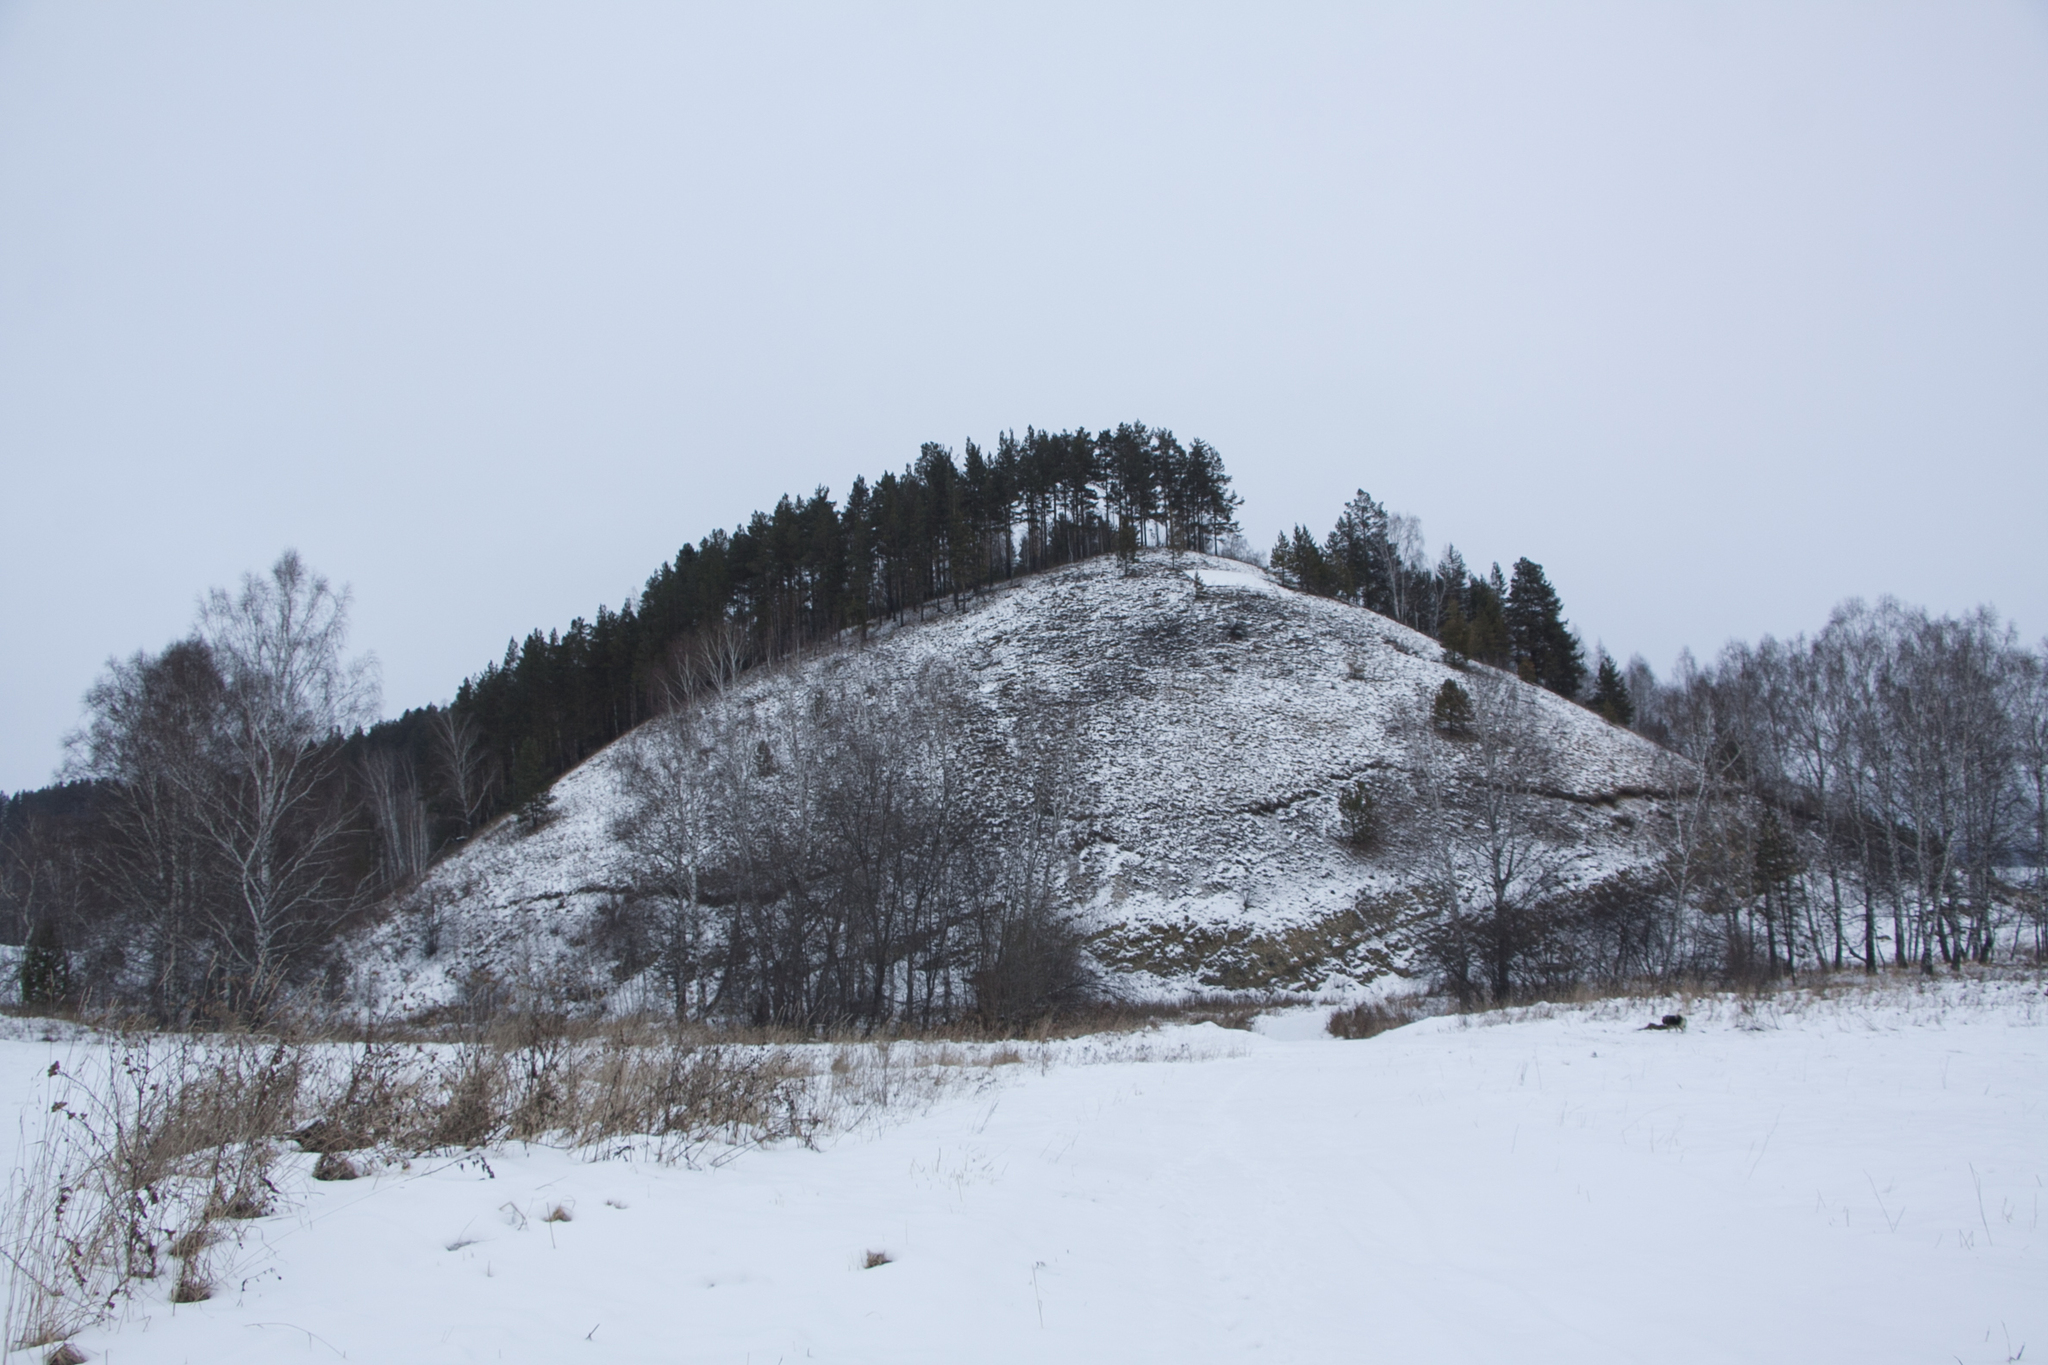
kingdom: Plantae
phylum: Tracheophyta
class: Pinopsida
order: Pinales
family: Pinaceae
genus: Pinus
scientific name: Pinus sylvestris
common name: Scots pine
